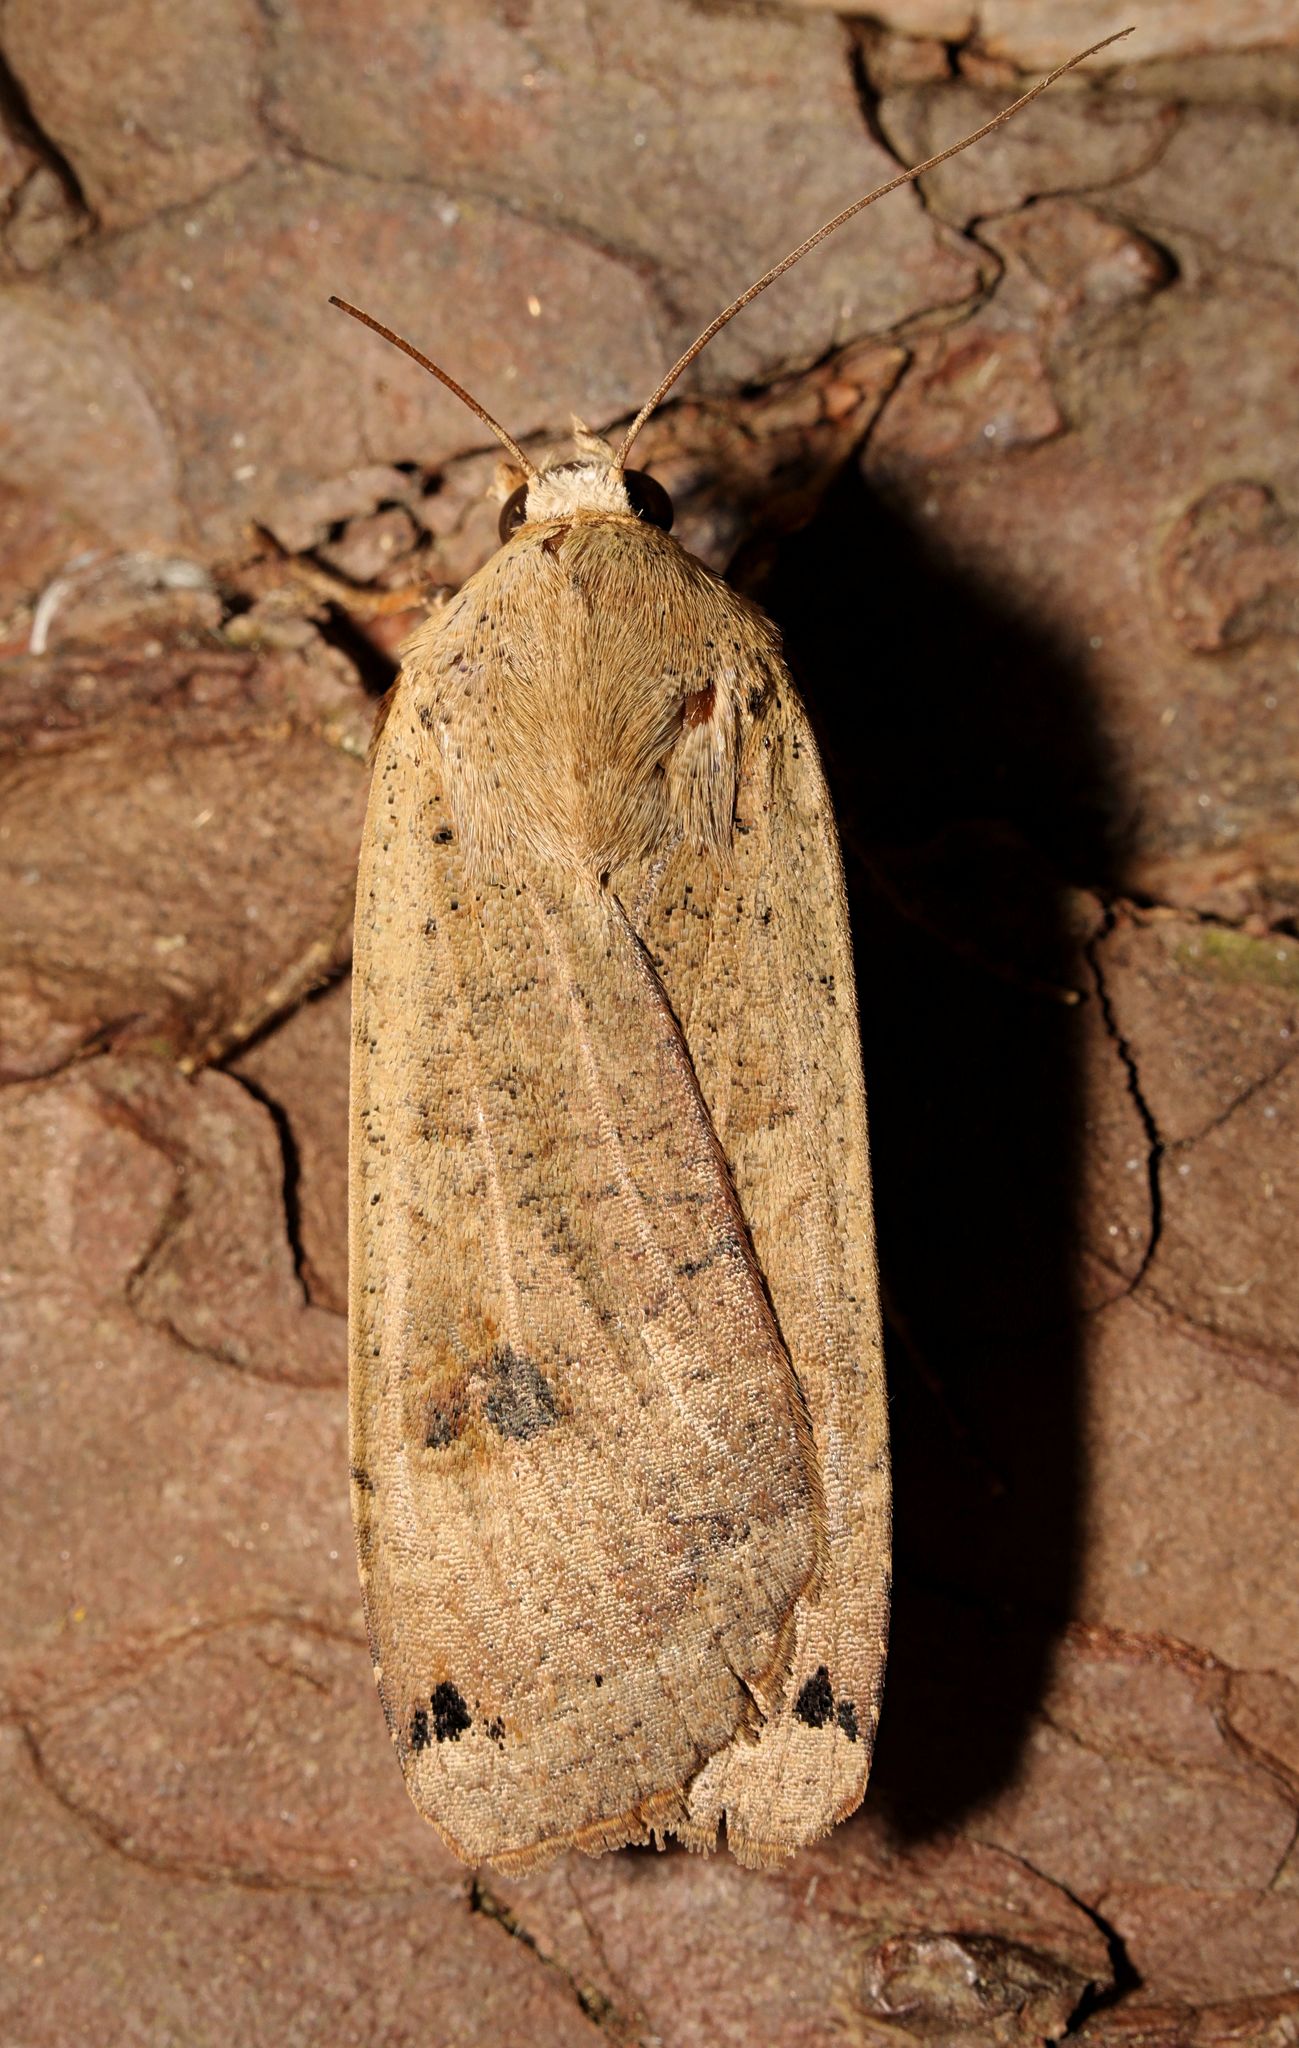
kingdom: Animalia
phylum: Arthropoda
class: Insecta
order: Lepidoptera
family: Noctuidae
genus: Noctua
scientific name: Noctua pronuba
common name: Large yellow underwing
